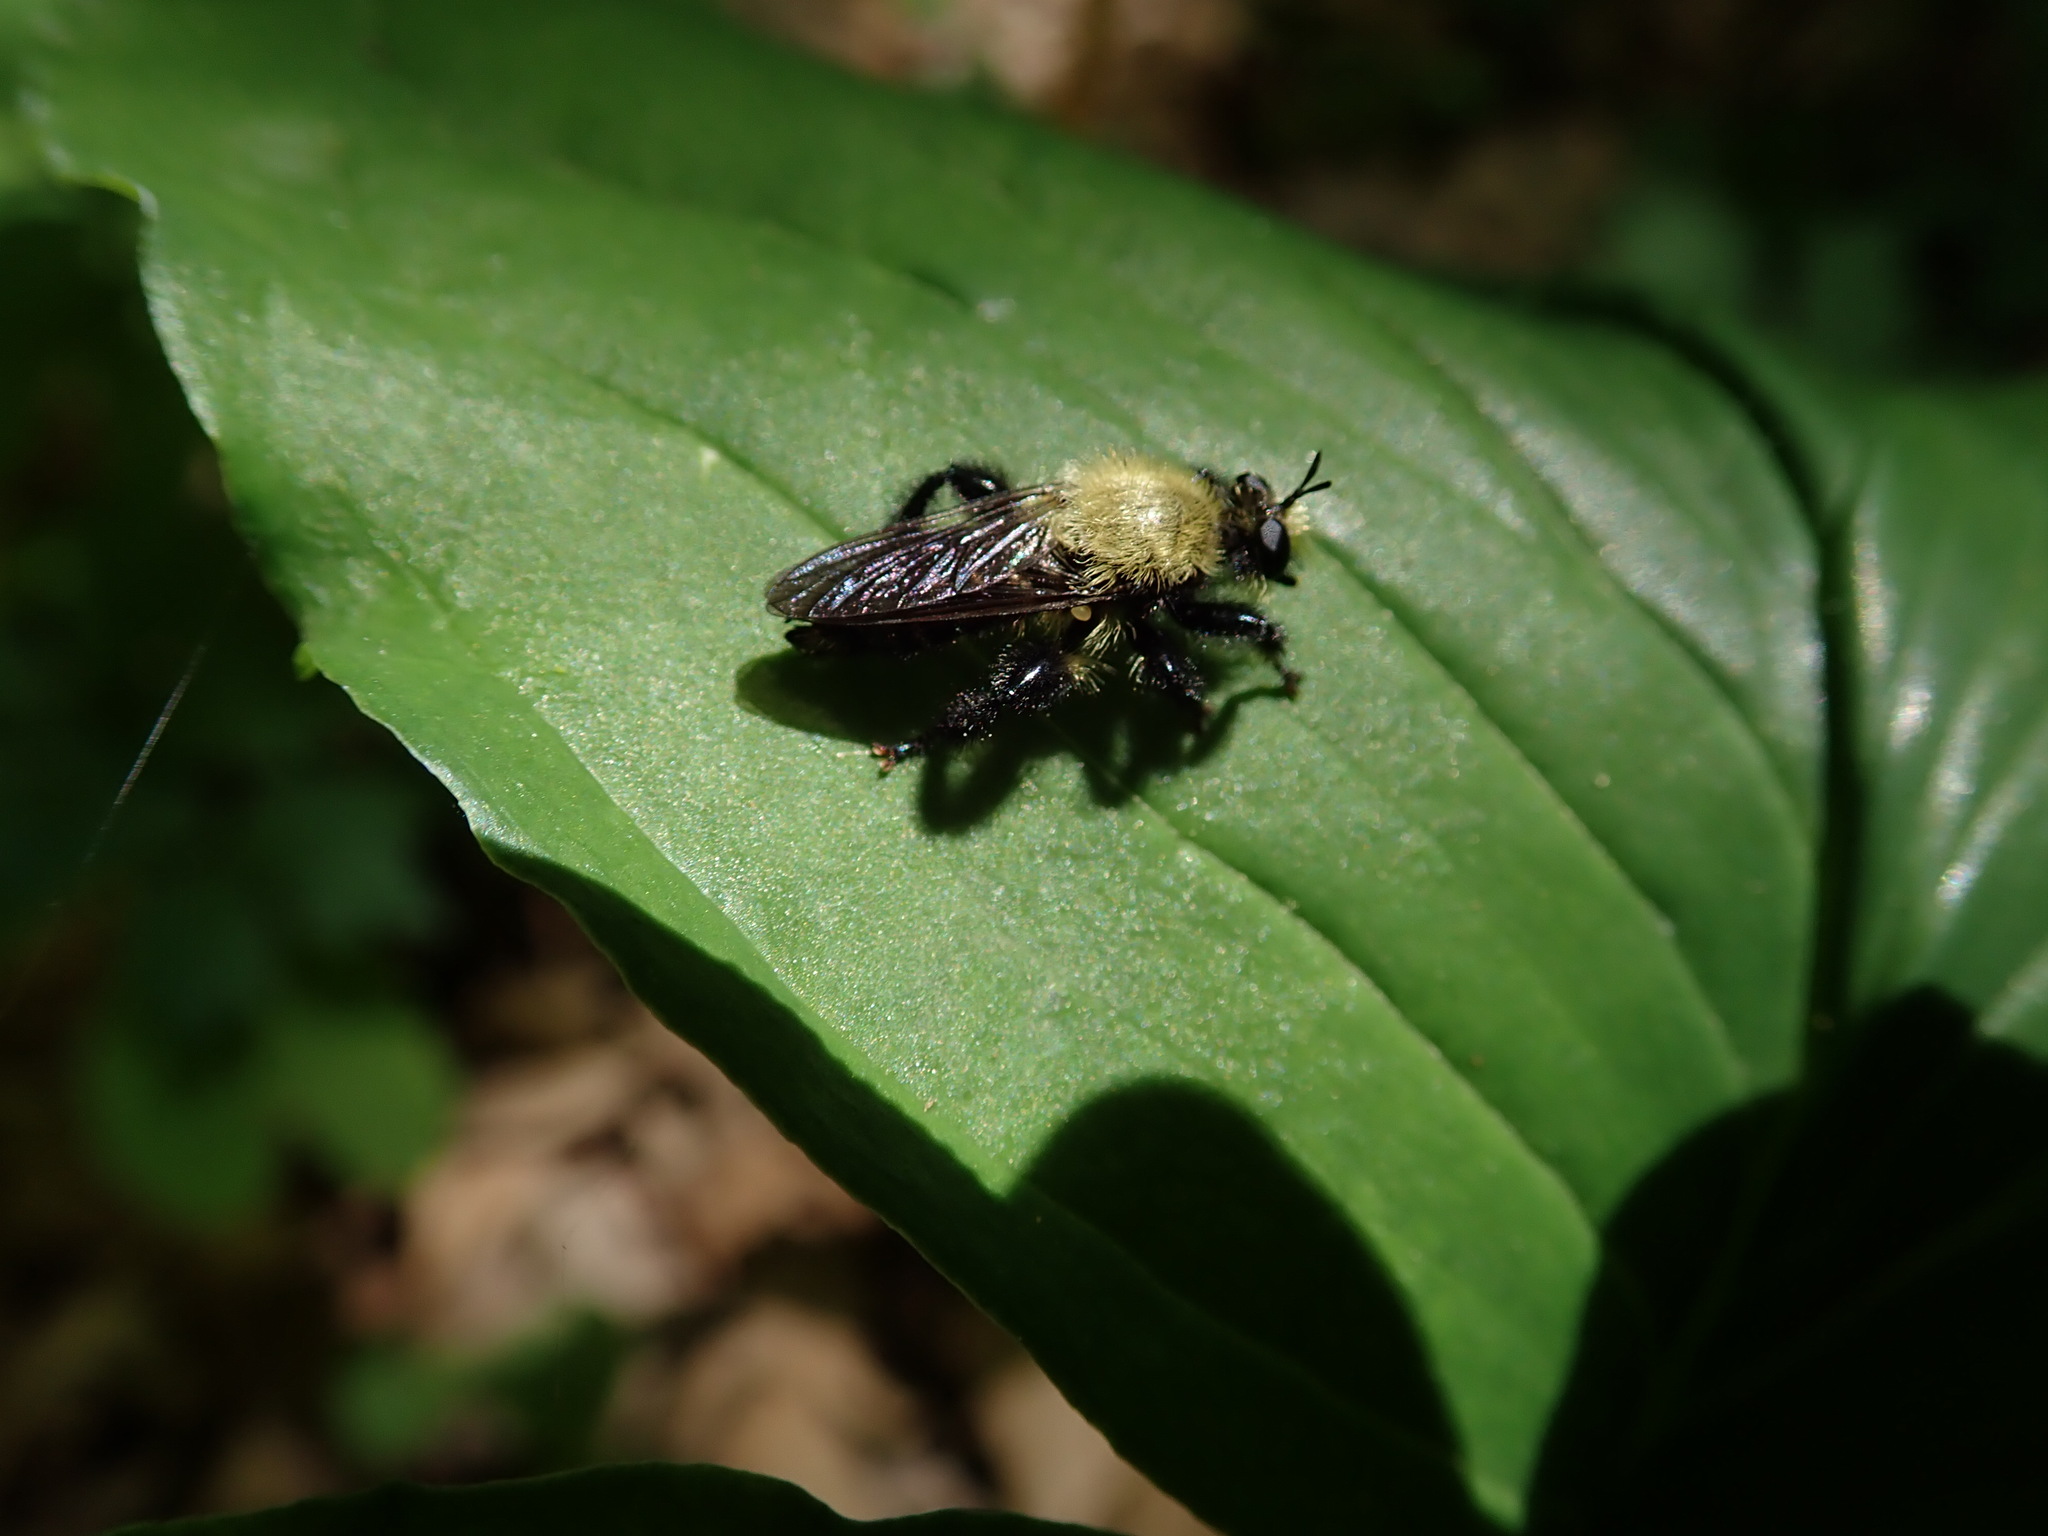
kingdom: Animalia
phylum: Arthropoda
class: Insecta
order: Diptera
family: Asilidae
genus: Laphria
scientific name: Laphria flavicollis
